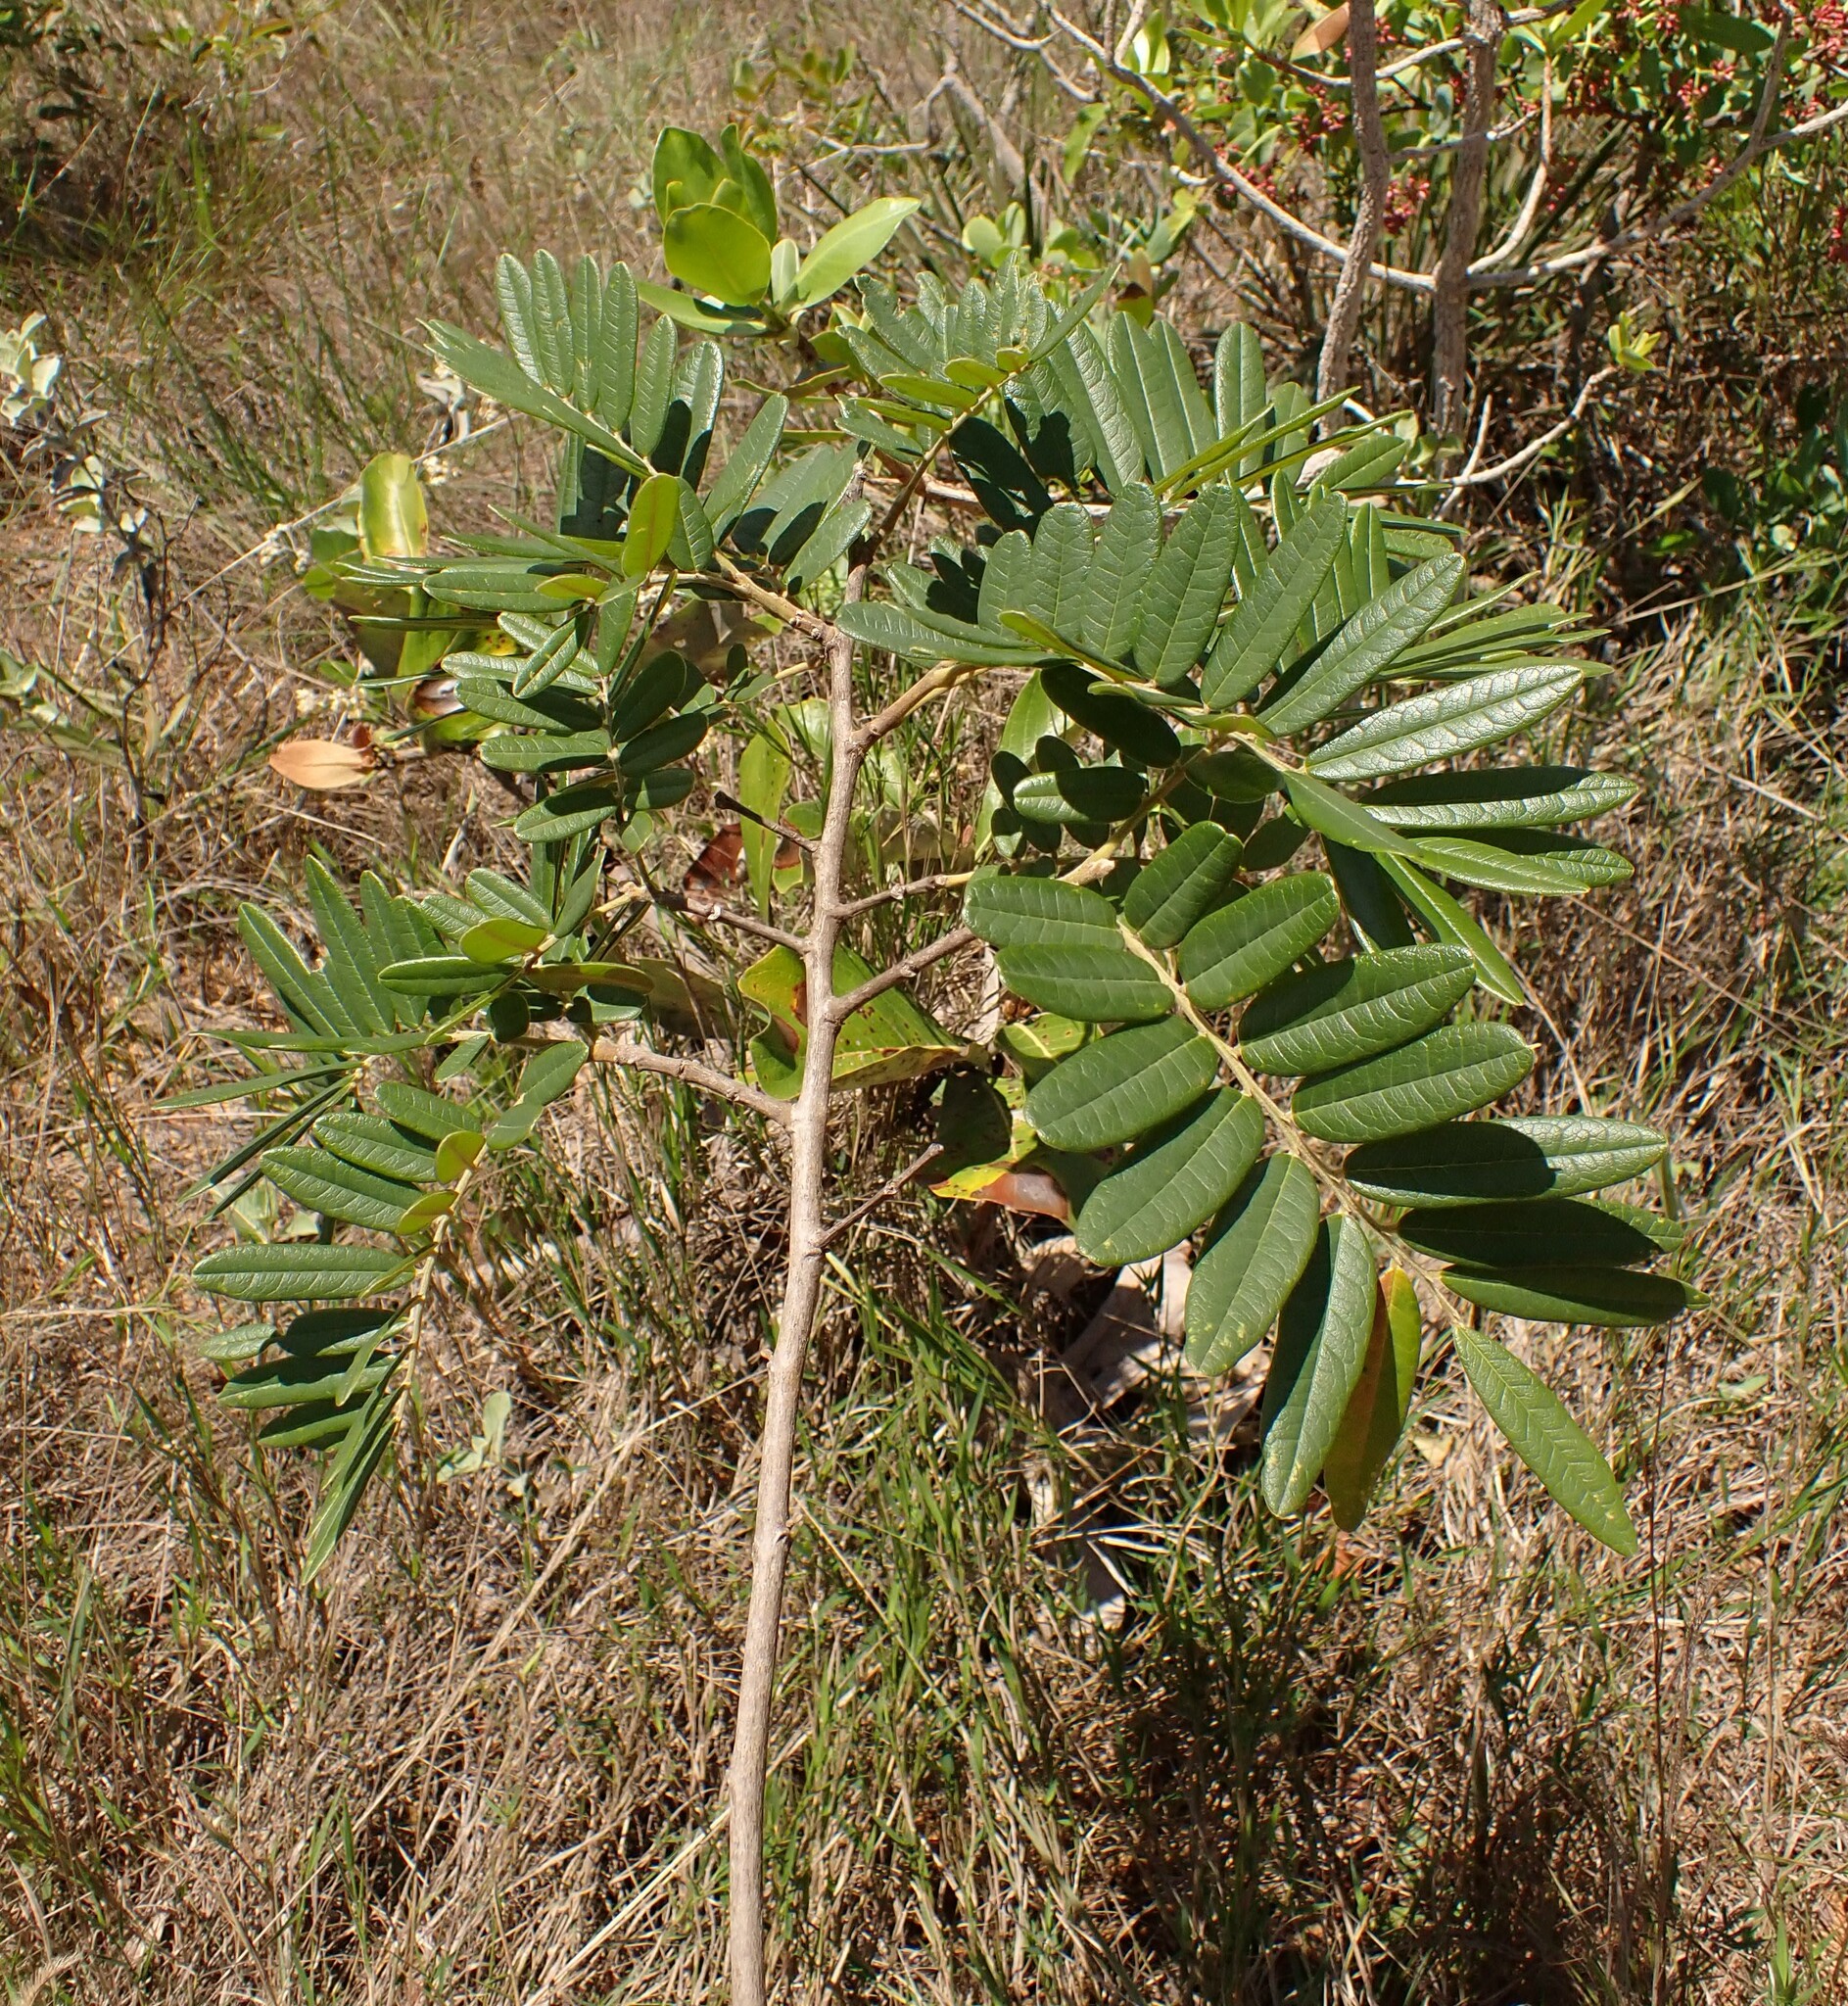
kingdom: Plantae
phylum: Tracheophyta
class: Magnoliopsida
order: Fabales
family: Fabaceae
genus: Bowdichia
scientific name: Bowdichia virgilioides
